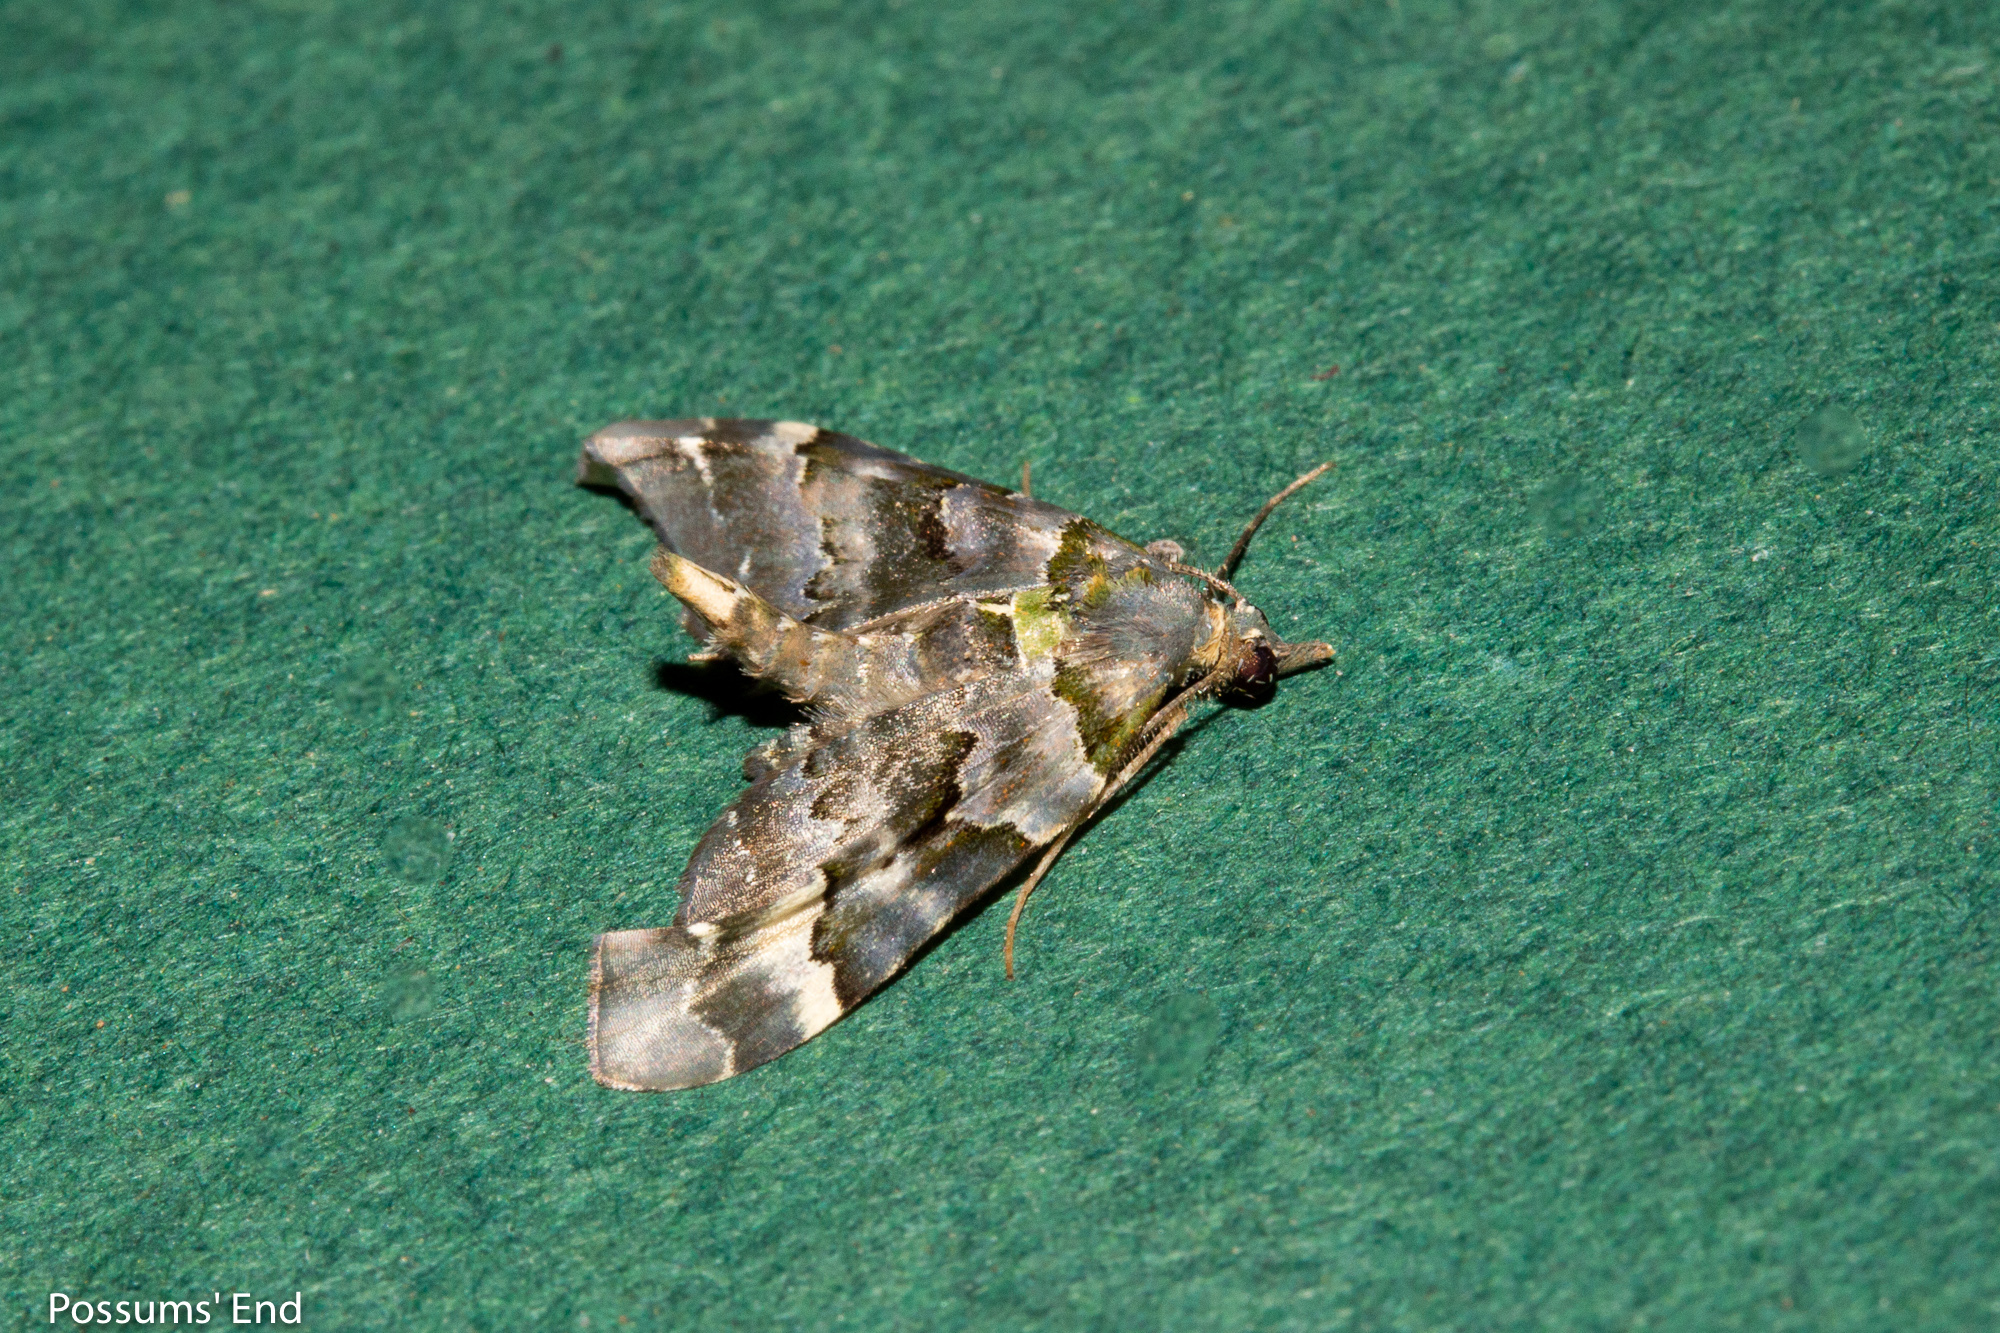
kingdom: Animalia
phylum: Arthropoda
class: Insecta
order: Lepidoptera
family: Geometridae
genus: Elvia
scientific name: Elvia glaucata
